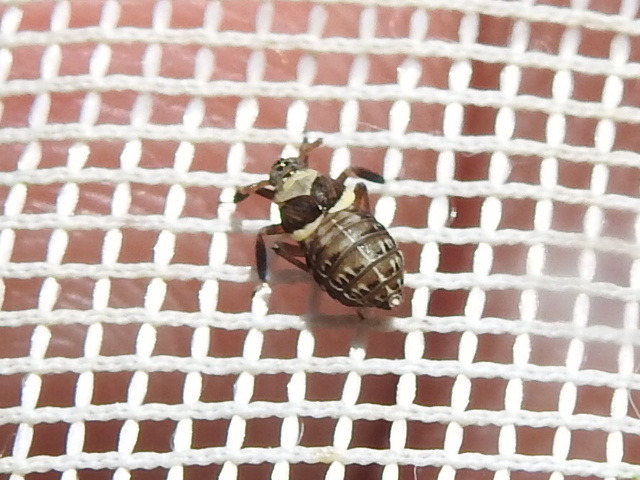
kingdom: Animalia
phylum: Arthropoda
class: Insecta
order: Hemiptera
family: Delphacidae
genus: Pissonotus
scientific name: Pissonotus flabellatus
